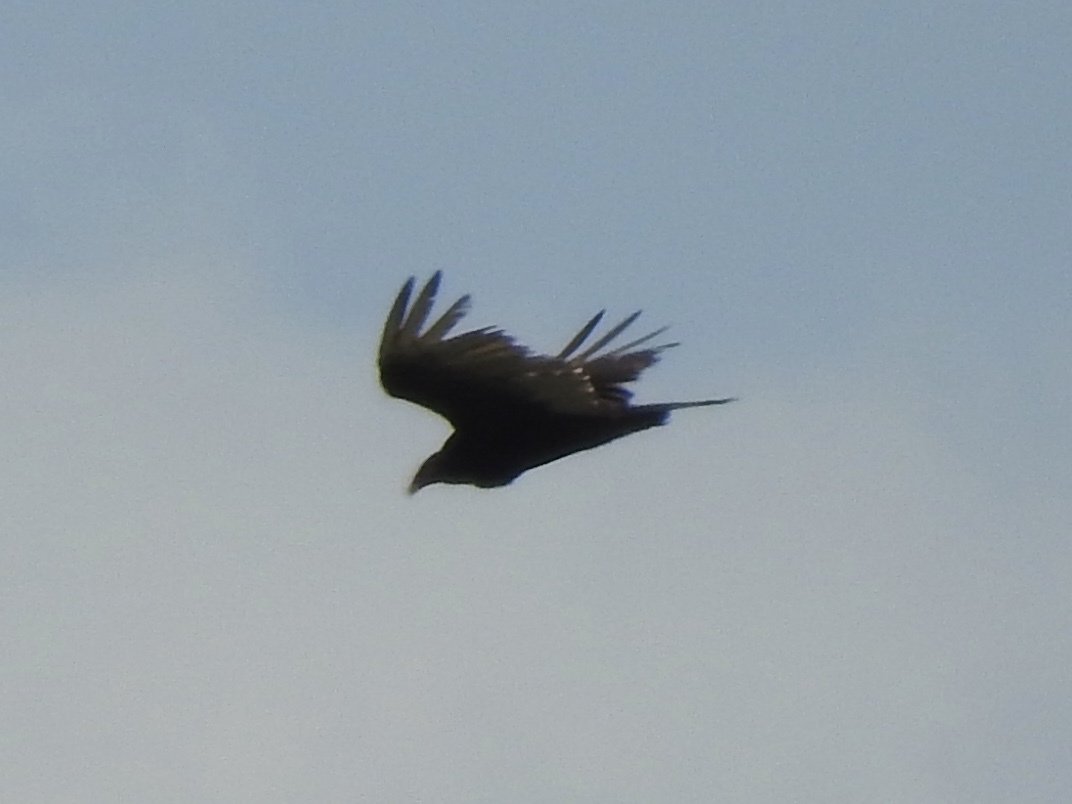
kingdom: Animalia
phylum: Chordata
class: Aves
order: Accipitriformes
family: Cathartidae
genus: Cathartes
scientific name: Cathartes aura
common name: Turkey vulture
